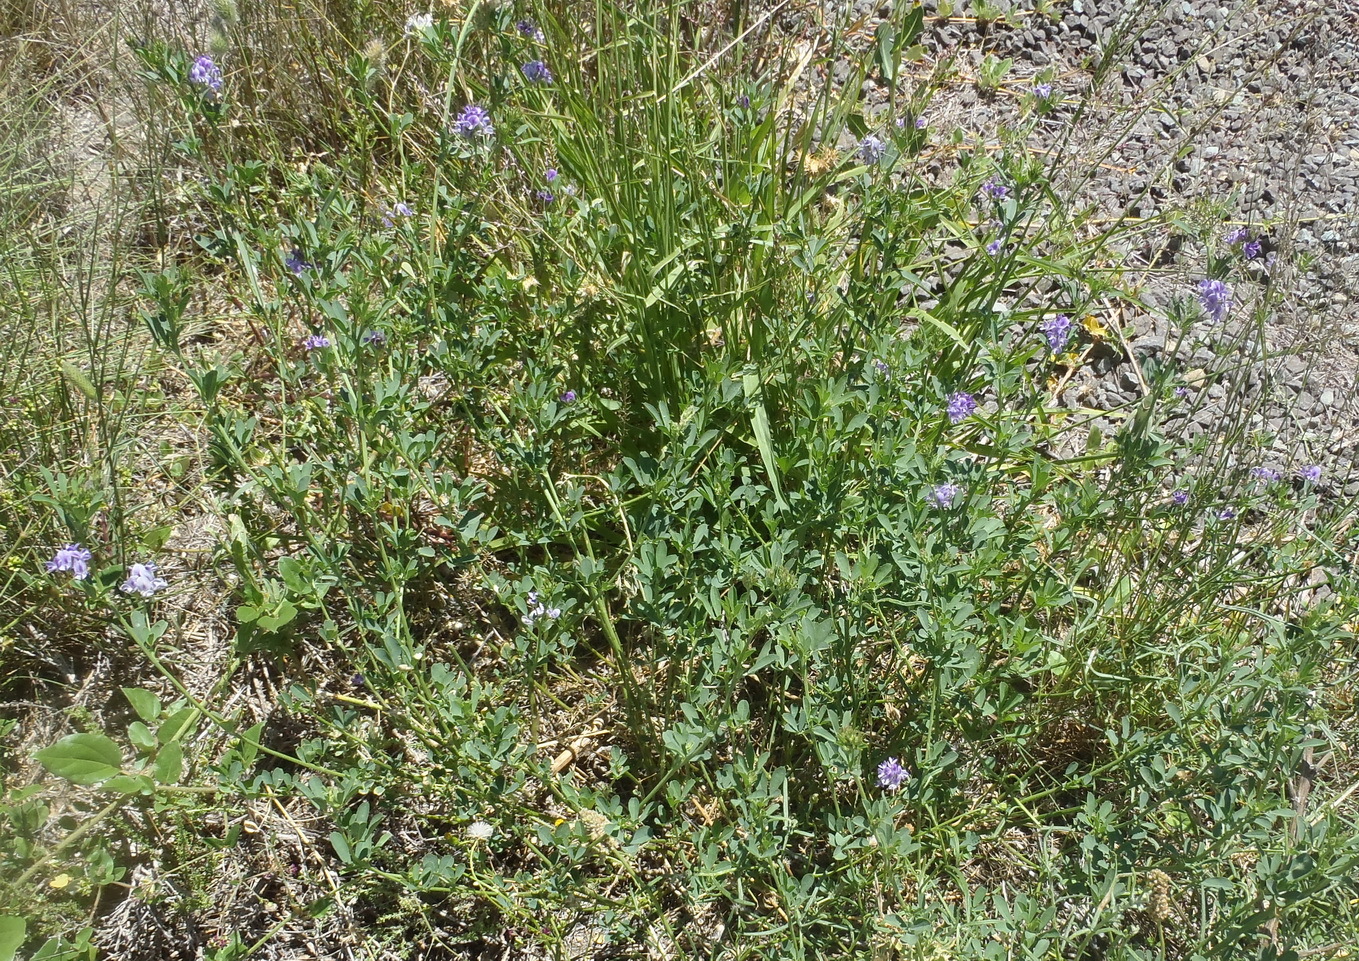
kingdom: Plantae
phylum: Tracheophyta
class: Magnoliopsida
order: Fabales
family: Fabaceae
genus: Medicago
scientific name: Medicago sativa
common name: Alfalfa
